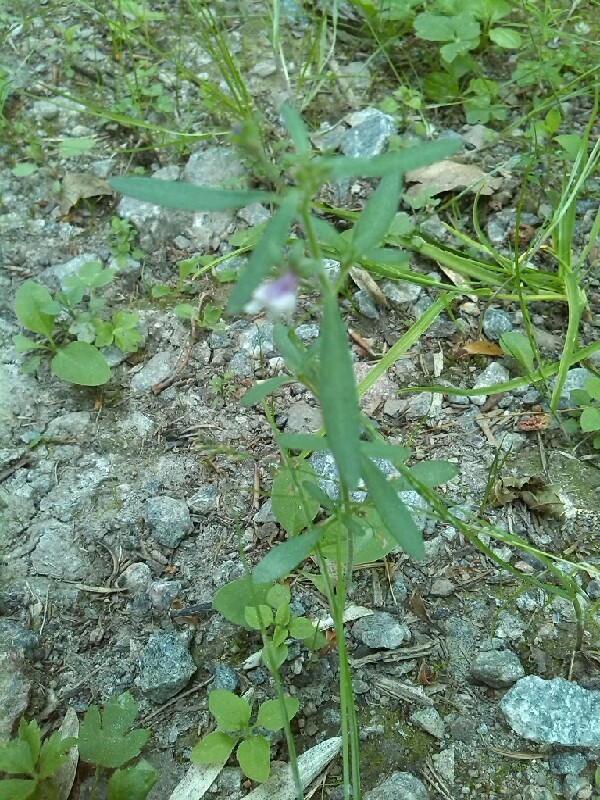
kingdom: Plantae
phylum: Tracheophyta
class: Magnoliopsida
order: Lamiales
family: Plantaginaceae
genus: Chaenorhinum
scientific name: Chaenorhinum minus
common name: Dwarf snapdragon
